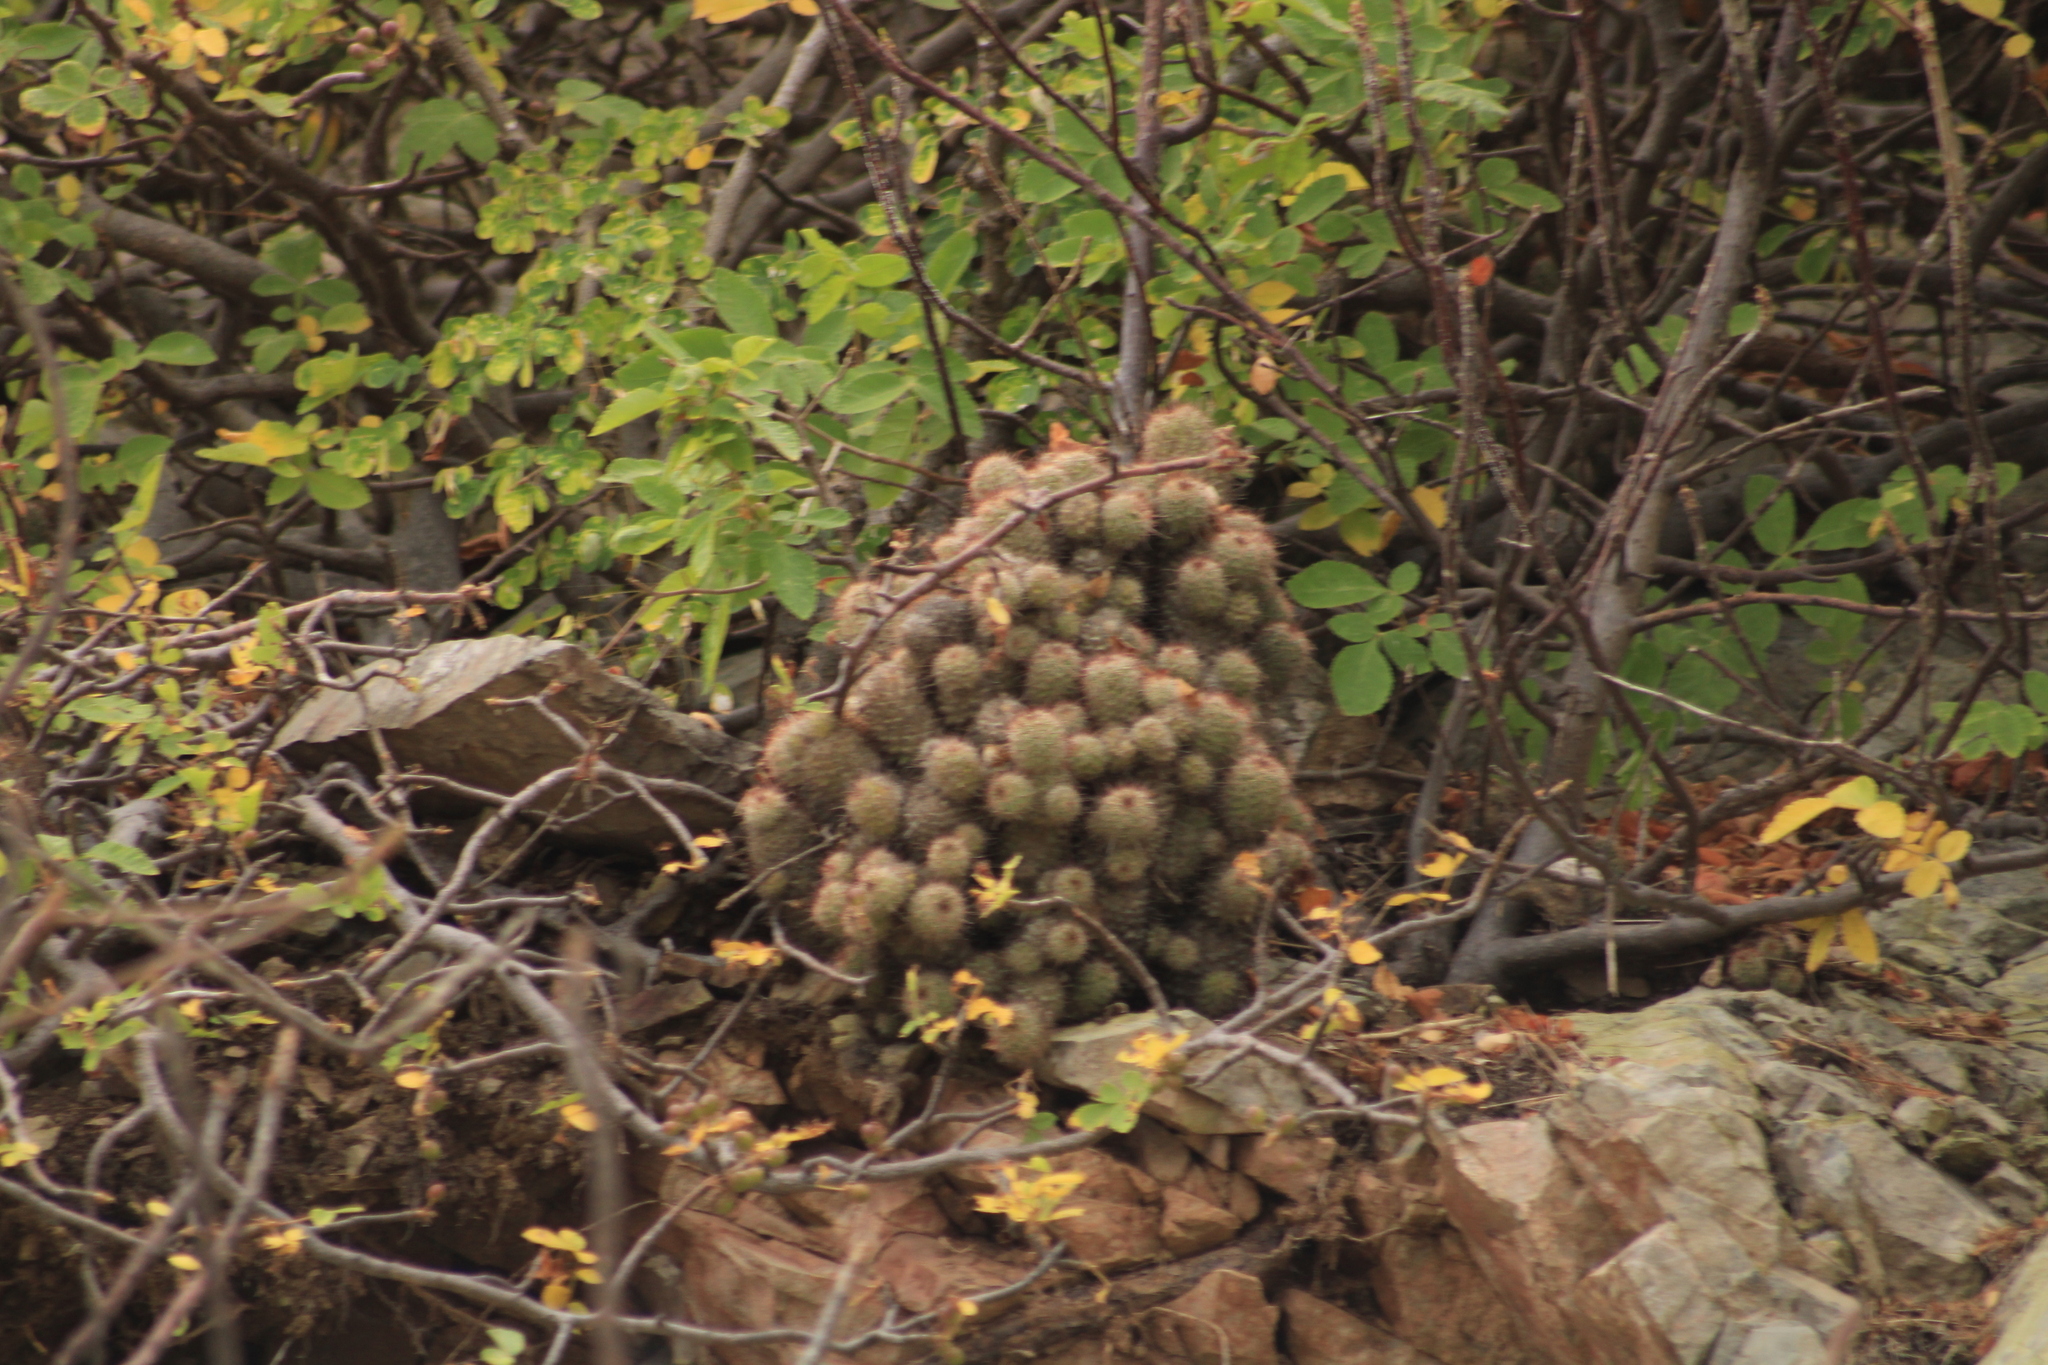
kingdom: Plantae
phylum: Tracheophyta
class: Magnoliopsida
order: Caryophyllales
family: Cactaceae
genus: Cochemiea
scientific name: Cochemiea mazatlanensis
